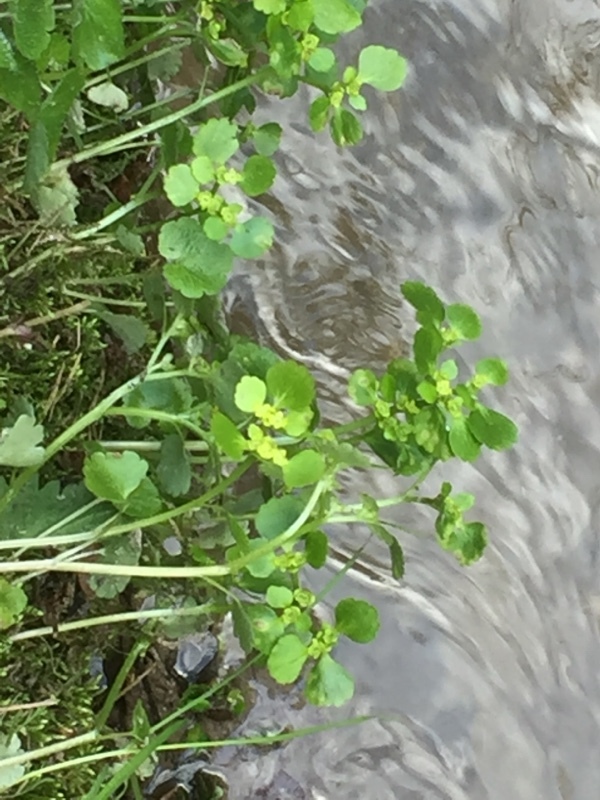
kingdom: Plantae
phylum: Tracheophyta
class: Magnoliopsida
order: Saxifragales
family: Saxifragaceae
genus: Chrysosplenium
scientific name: Chrysosplenium alternifolium
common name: Alternate-leaved golden-saxifrage
